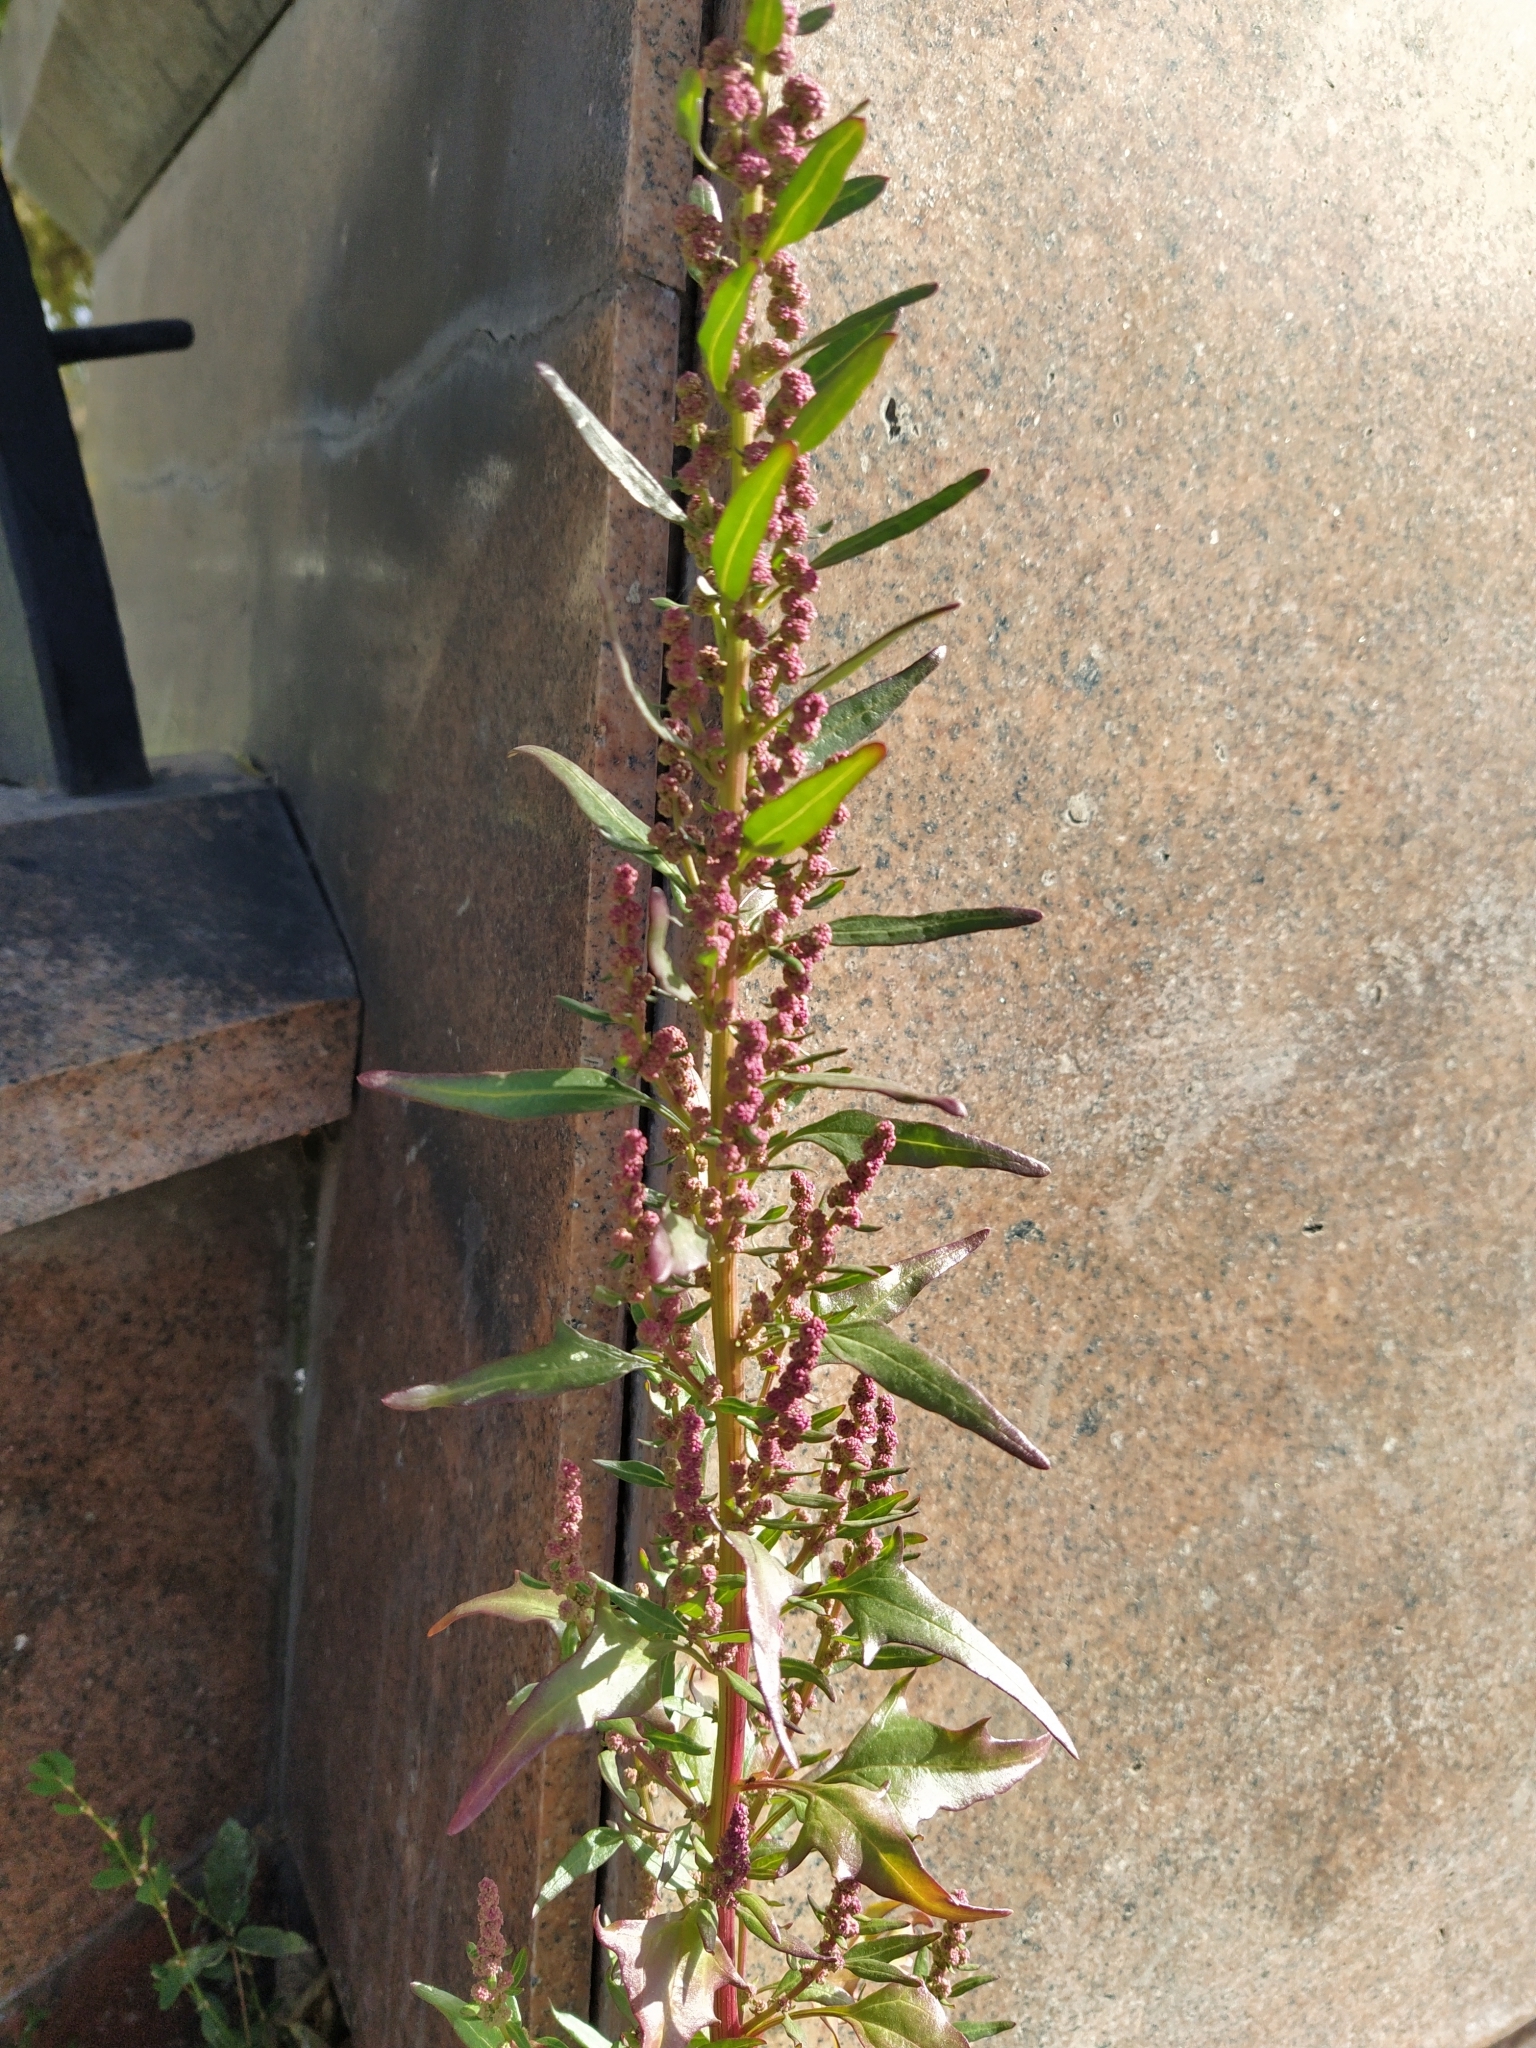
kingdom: Plantae
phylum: Tracheophyta
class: Magnoliopsida
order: Caryophyllales
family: Amaranthaceae
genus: Oxybasis
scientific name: Oxybasis rubra
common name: Red goosefoot
